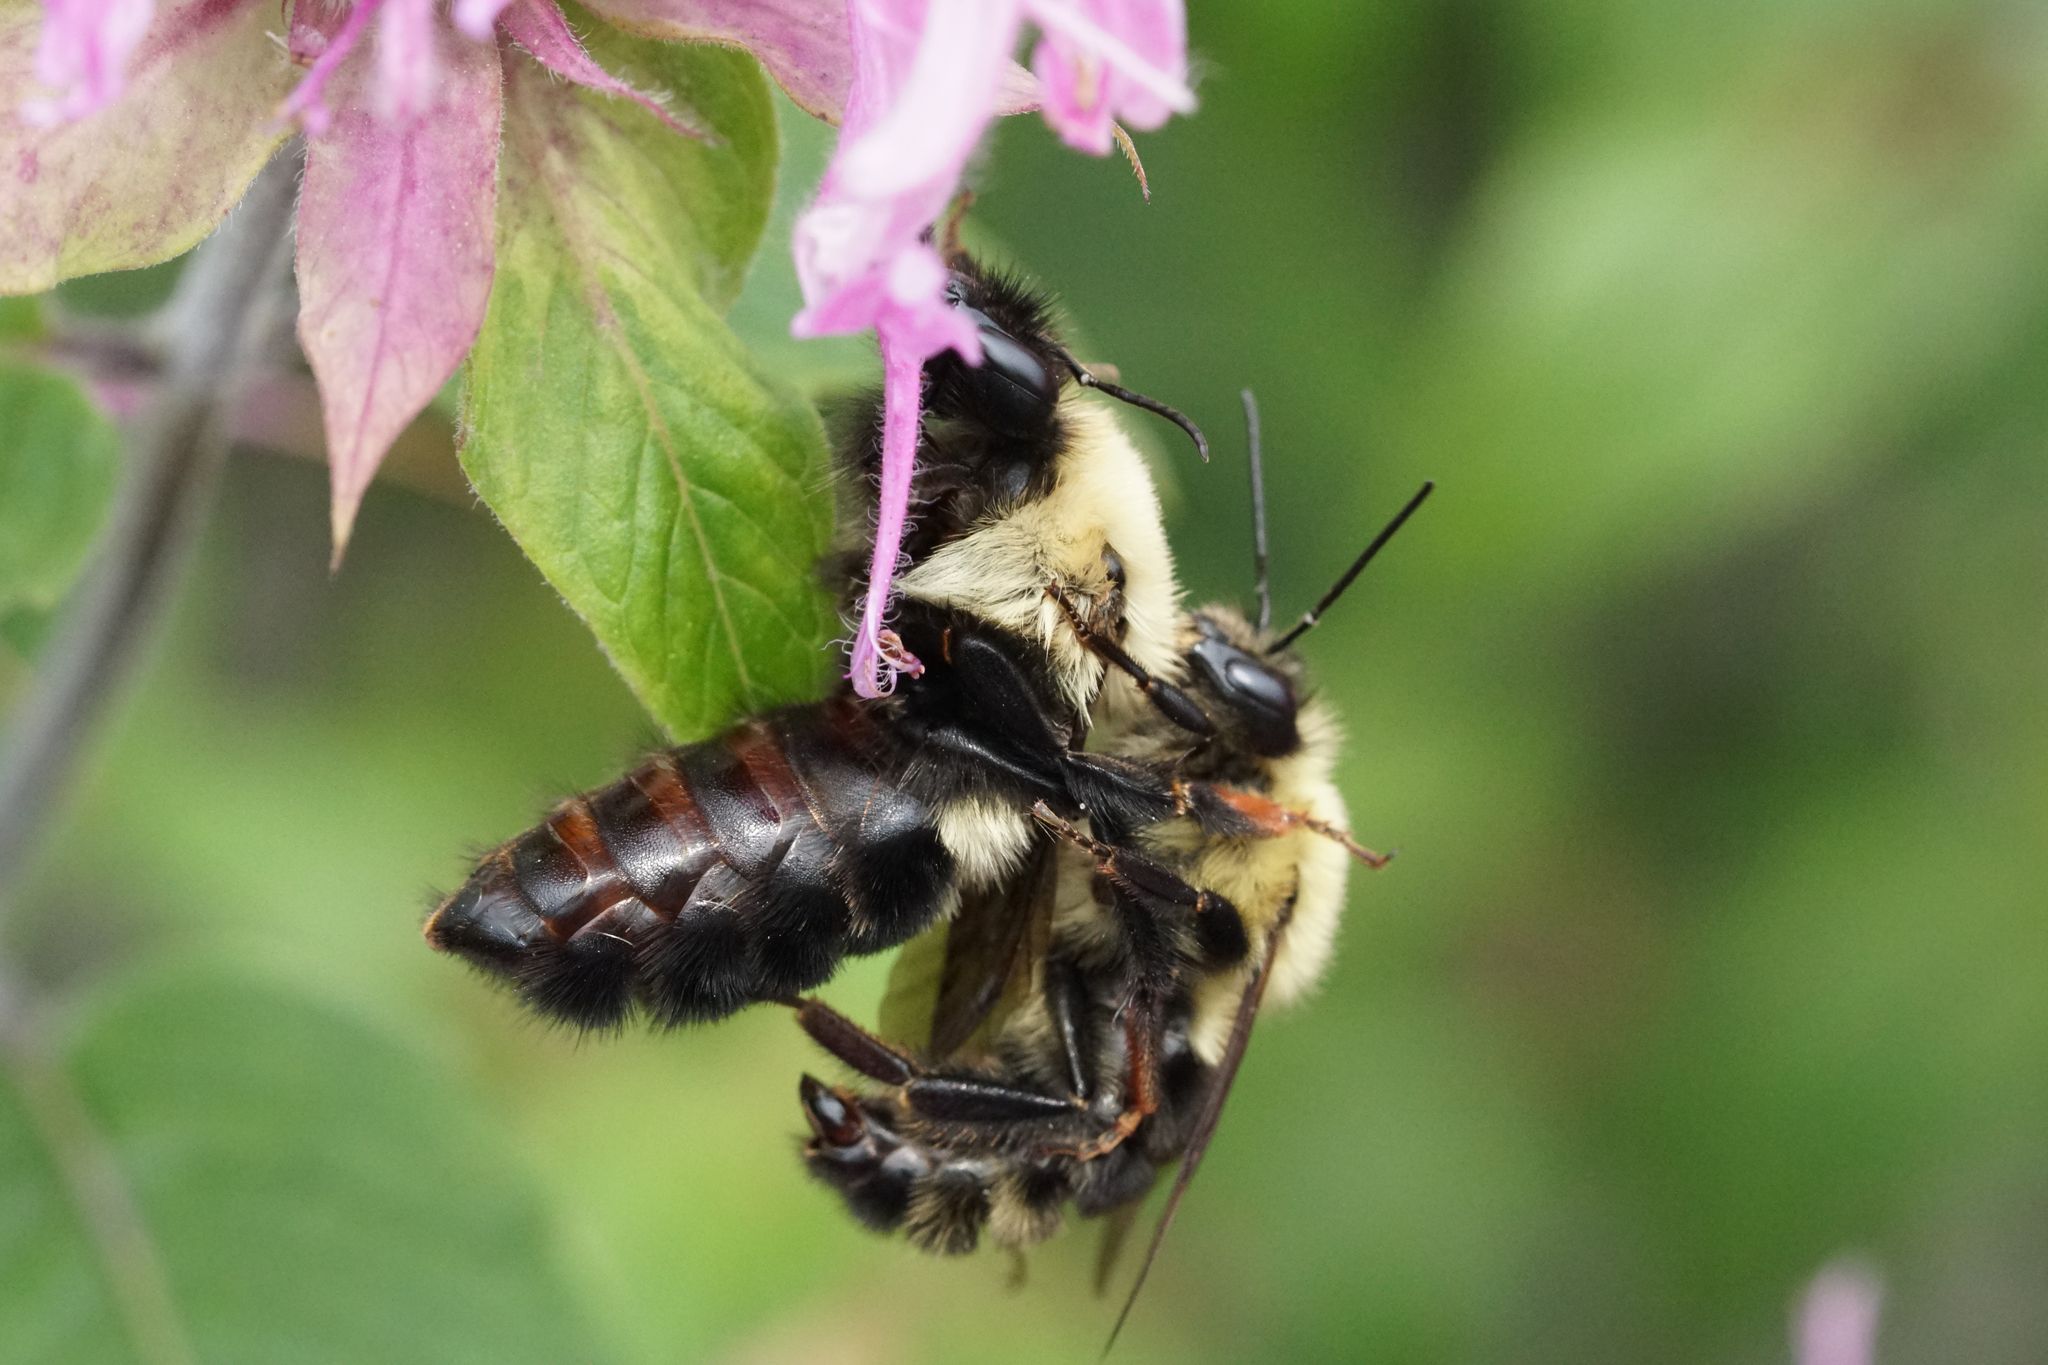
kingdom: Animalia
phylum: Arthropoda
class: Insecta
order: Hymenoptera
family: Apidae
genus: Bombus
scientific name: Bombus bimaculatus
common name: Two-spotted bumble bee
